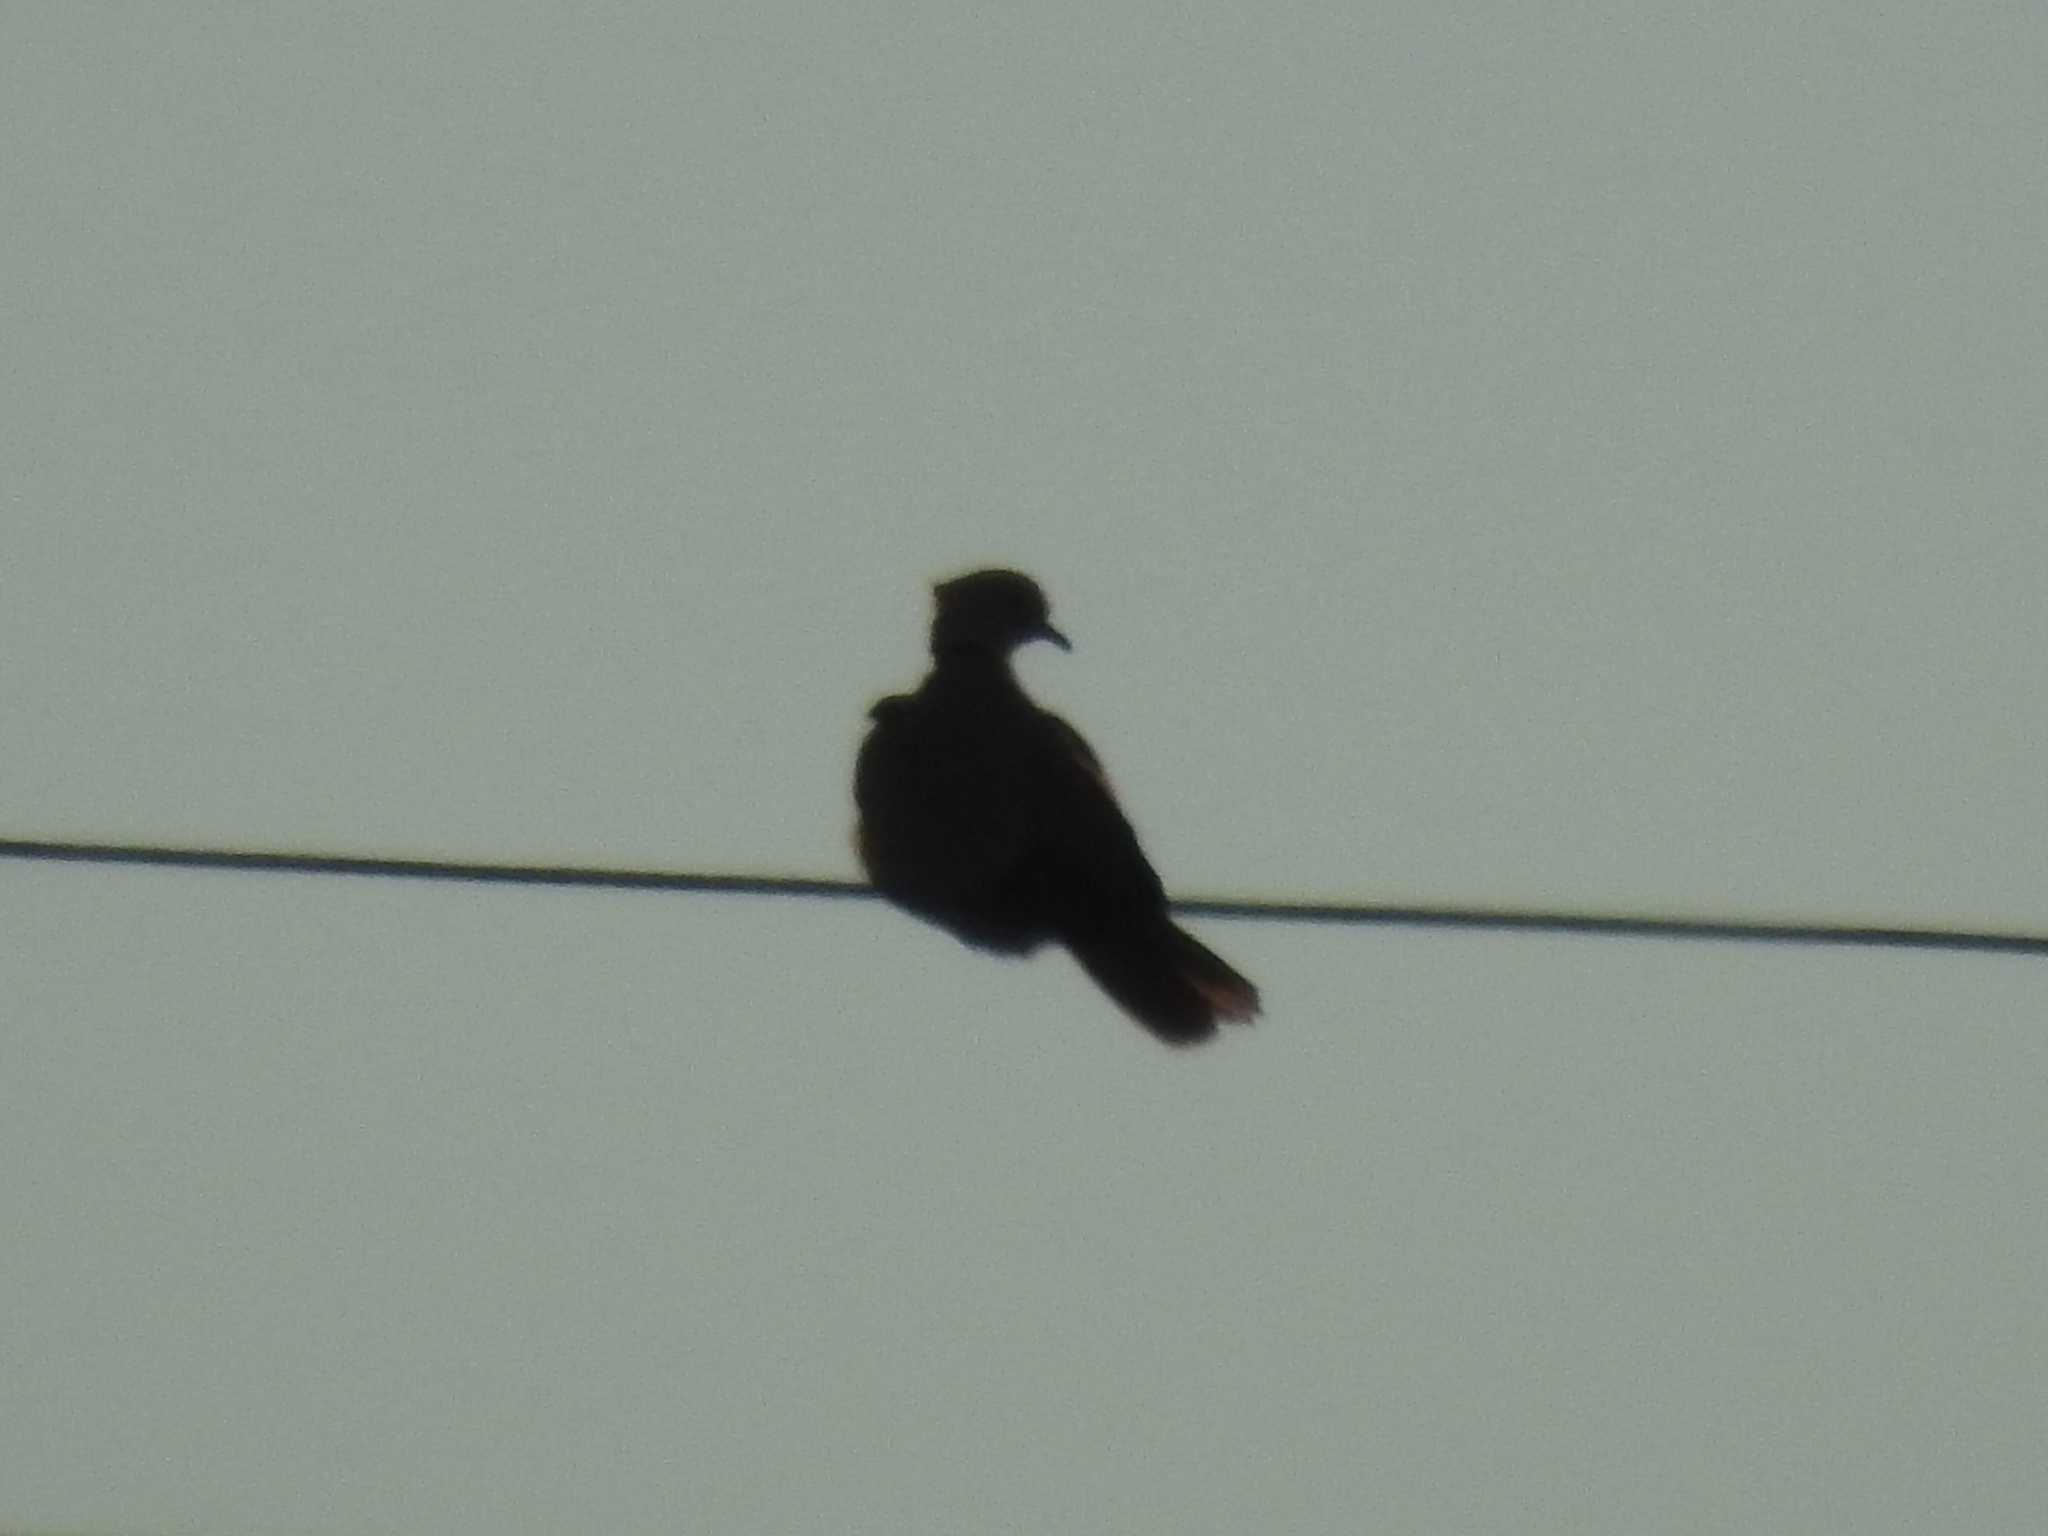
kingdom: Animalia
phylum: Chordata
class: Aves
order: Columbiformes
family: Columbidae
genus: Streptopelia
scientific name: Streptopelia decaocto
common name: Eurasian collared dove
